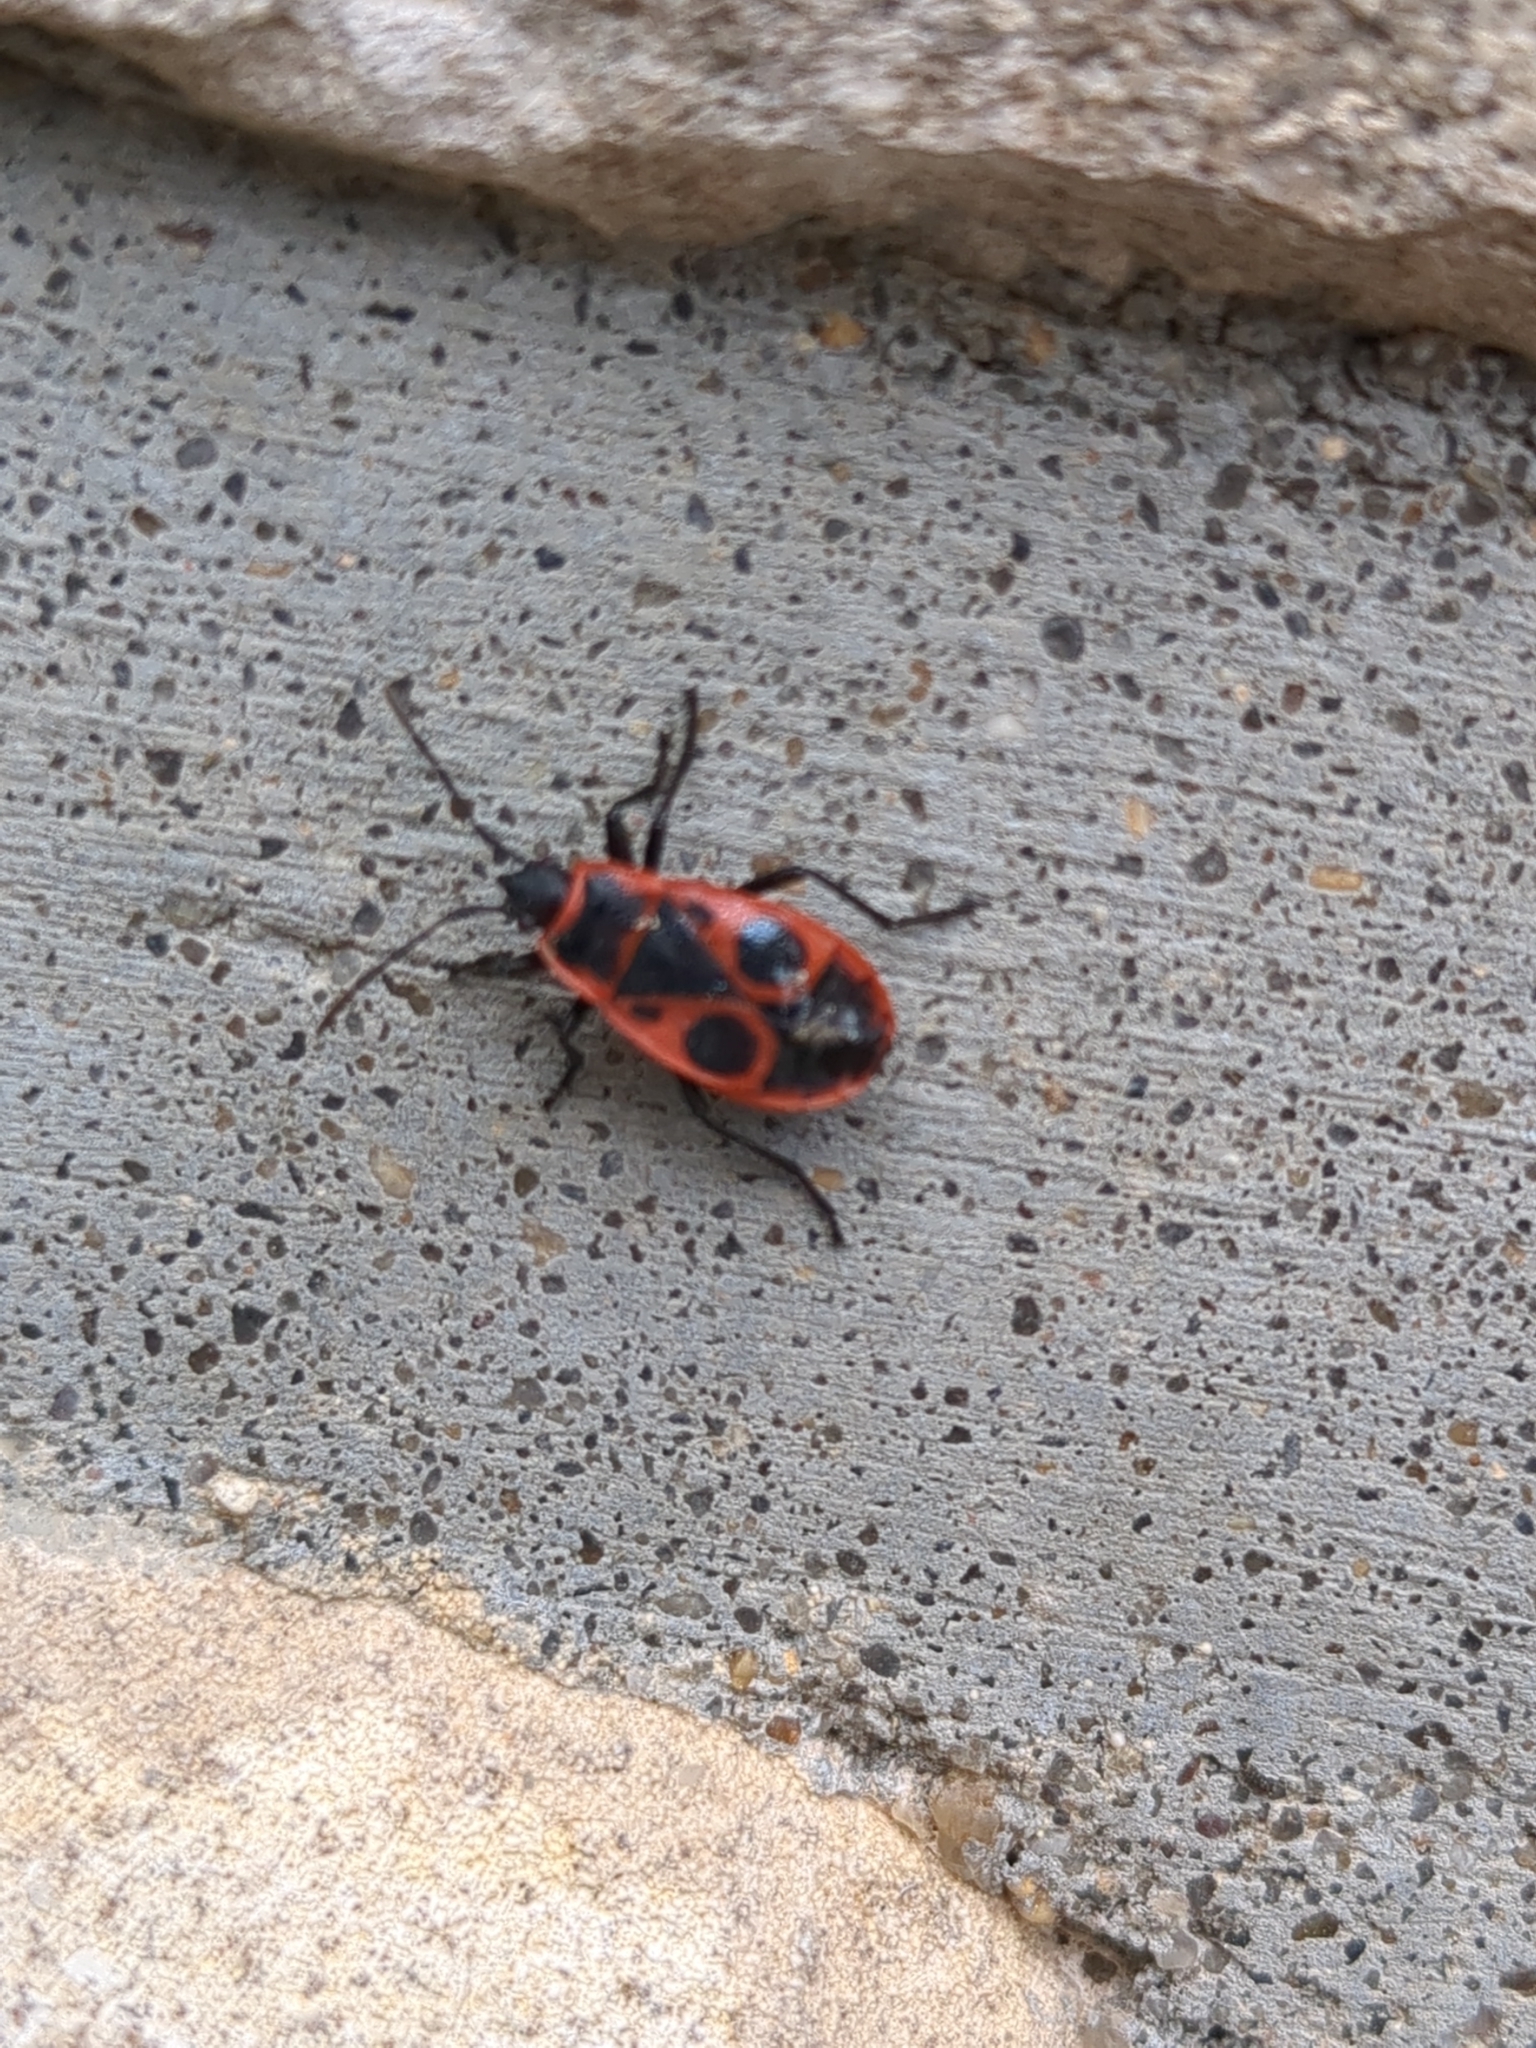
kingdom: Animalia
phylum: Arthropoda
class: Insecta
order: Hemiptera
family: Pyrrhocoridae
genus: Pyrrhocoris
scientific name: Pyrrhocoris apterus
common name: Firebug
